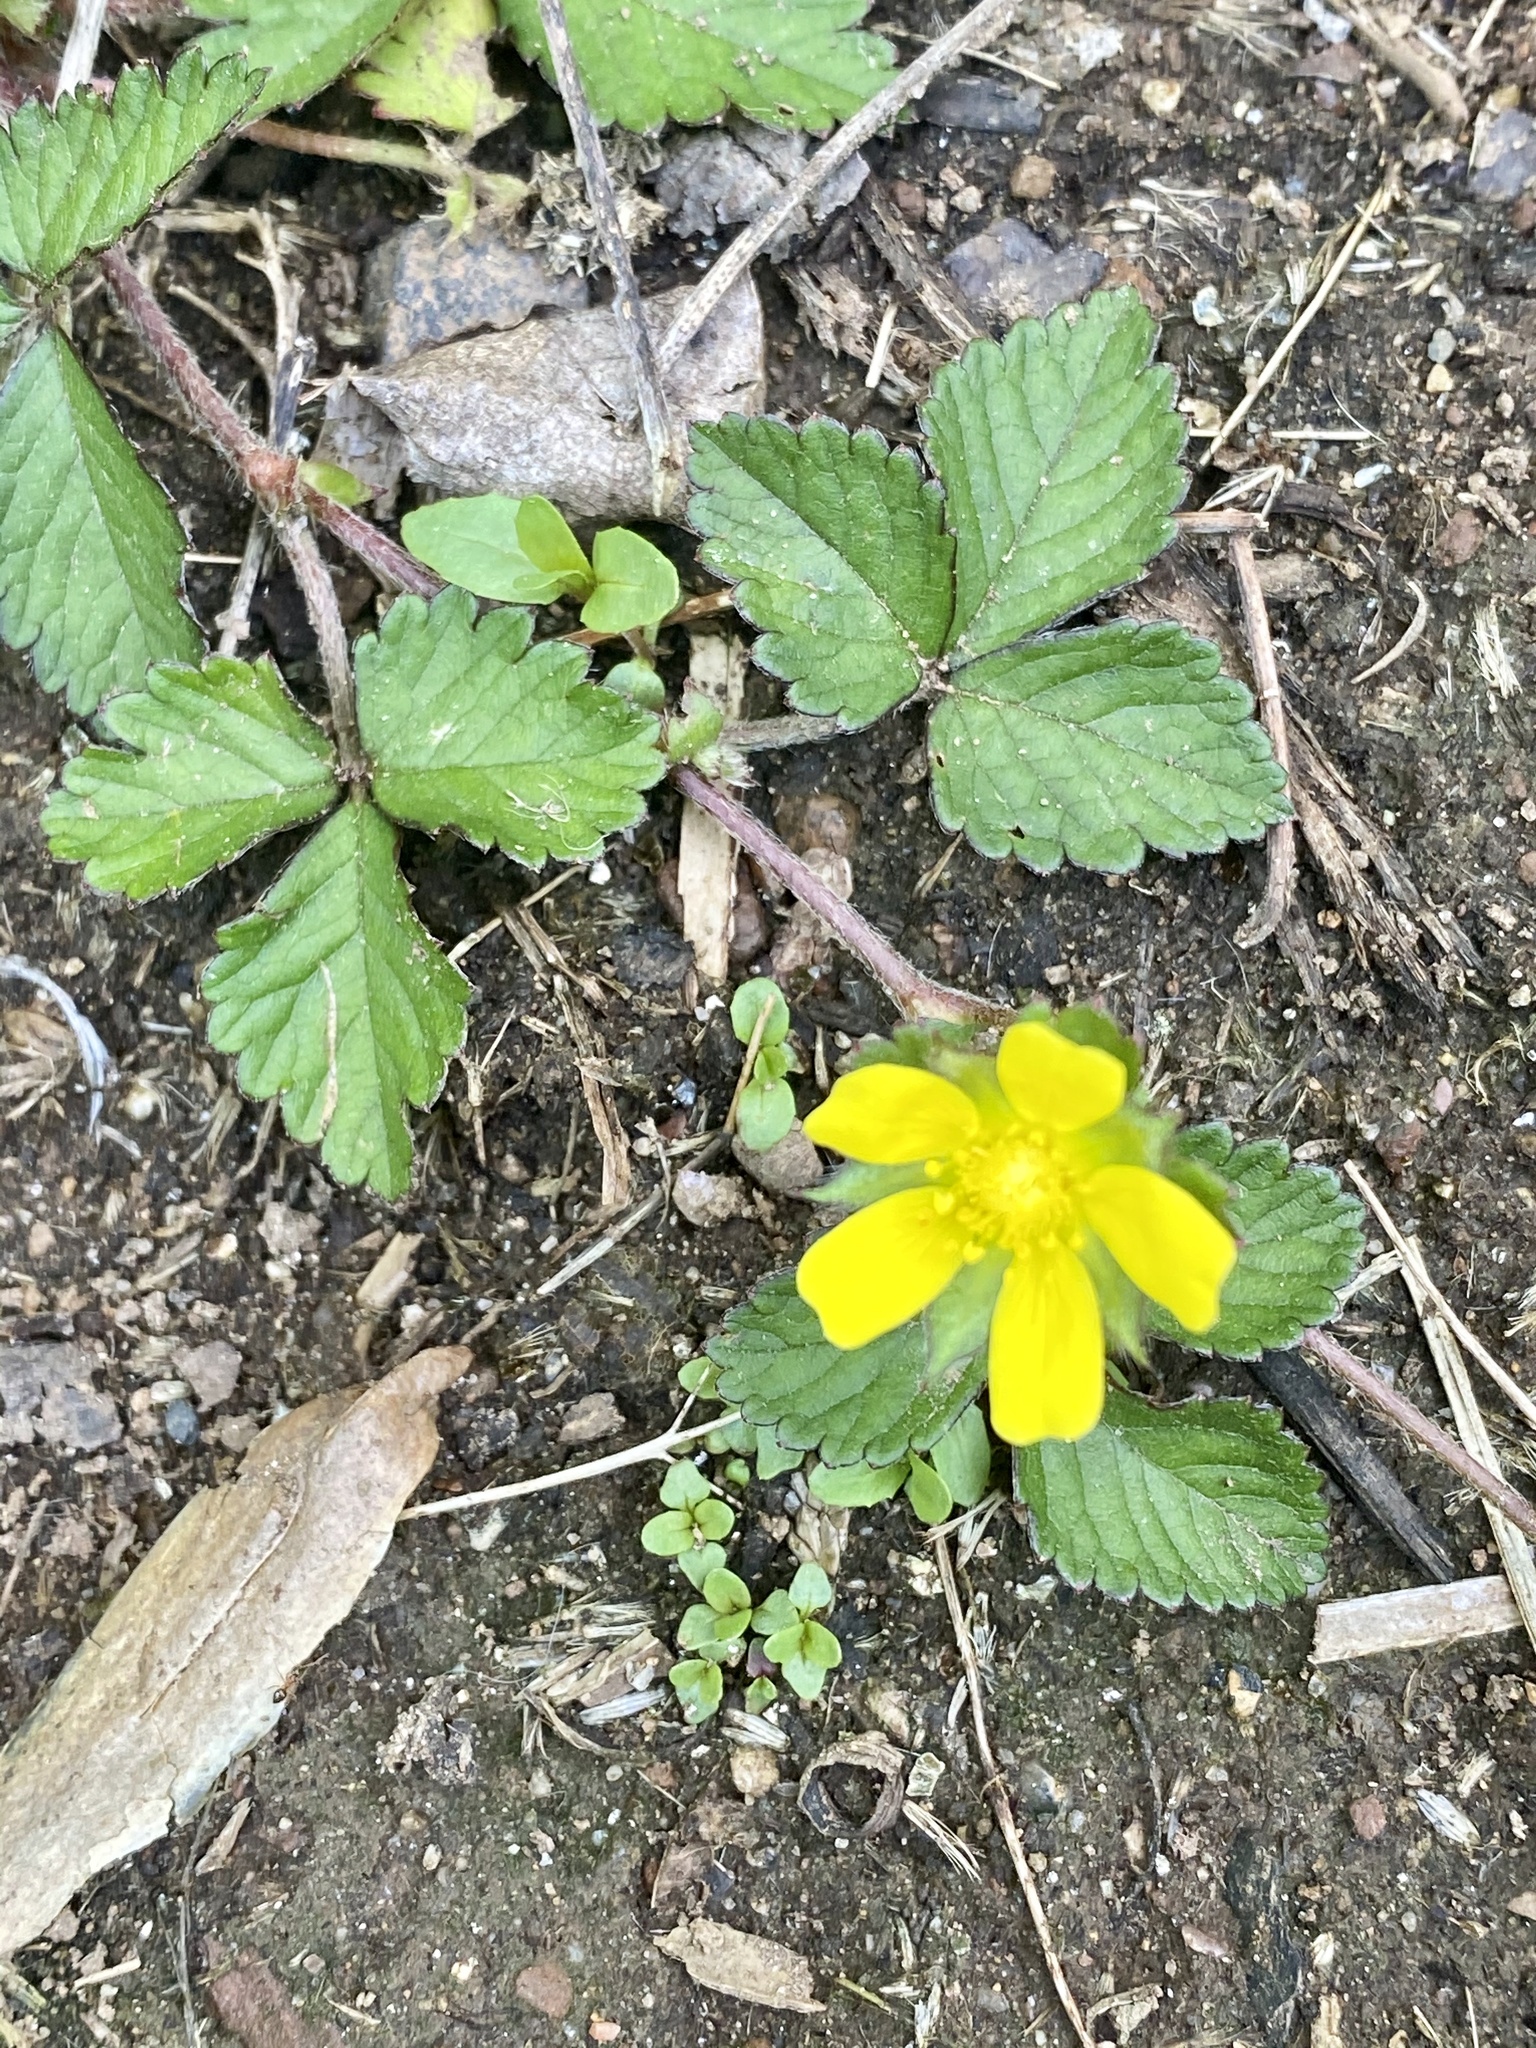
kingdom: Plantae
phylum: Tracheophyta
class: Magnoliopsida
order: Rosales
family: Rosaceae
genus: Potentilla
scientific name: Potentilla indica
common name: Yellow-flowered strawberry
